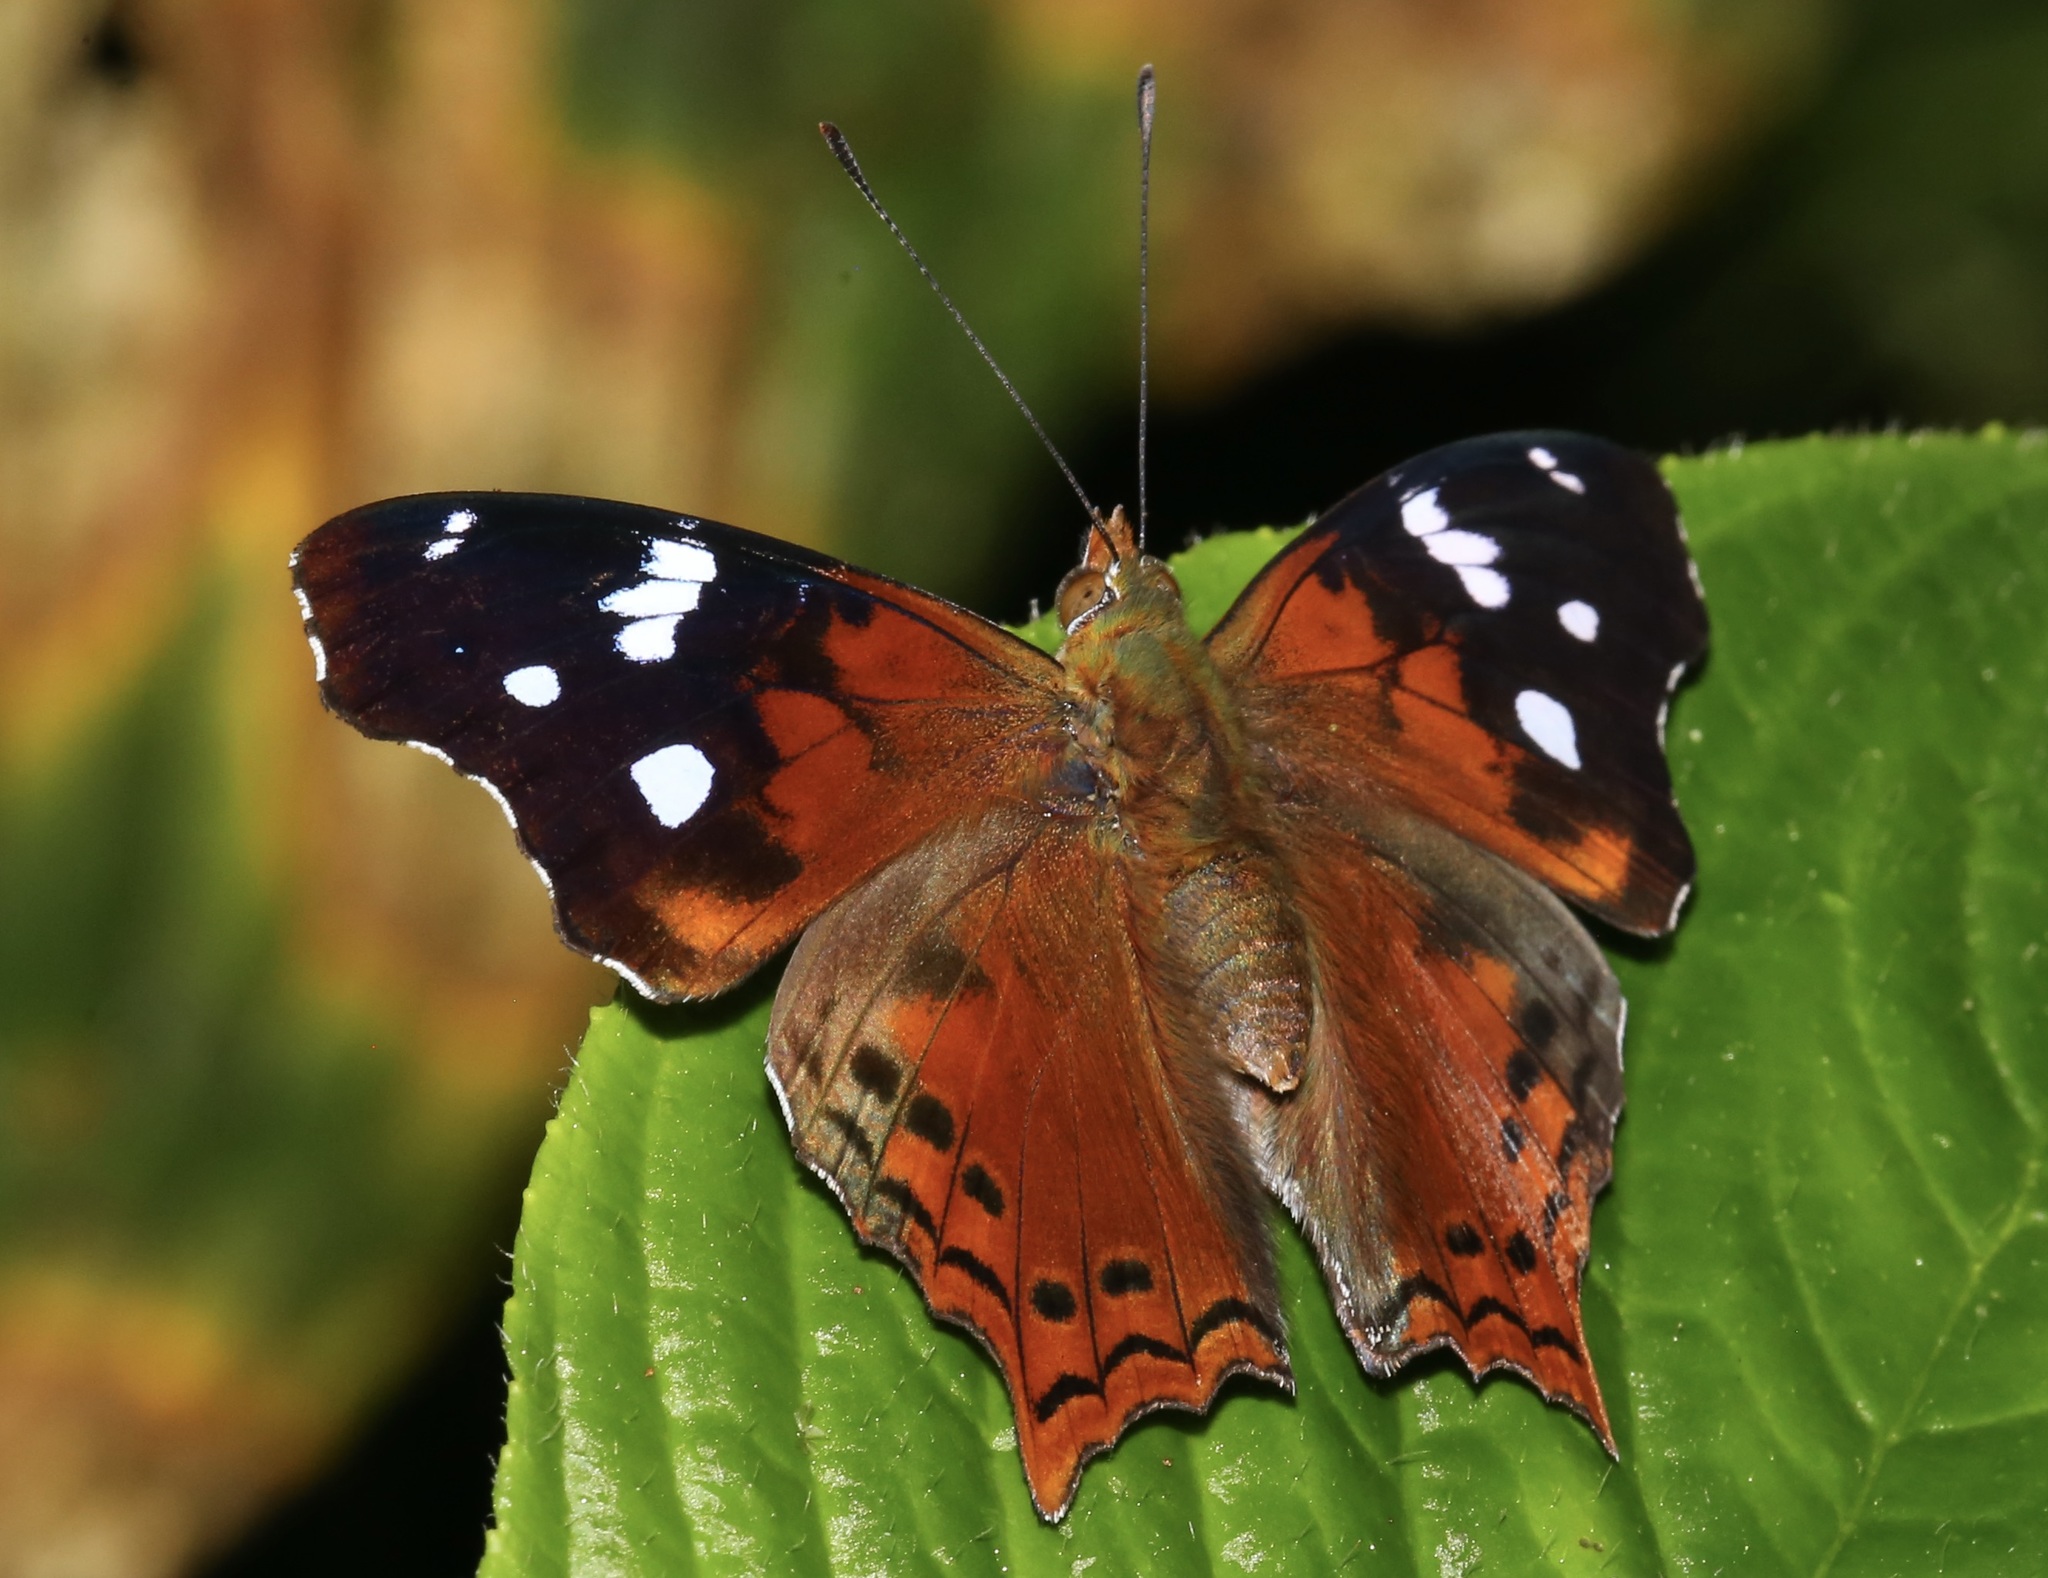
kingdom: Animalia
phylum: Arthropoda
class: Insecta
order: Lepidoptera
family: Nymphalidae
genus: Hypanartia
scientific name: Hypanartia trimaculata
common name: Reddish mapwing
